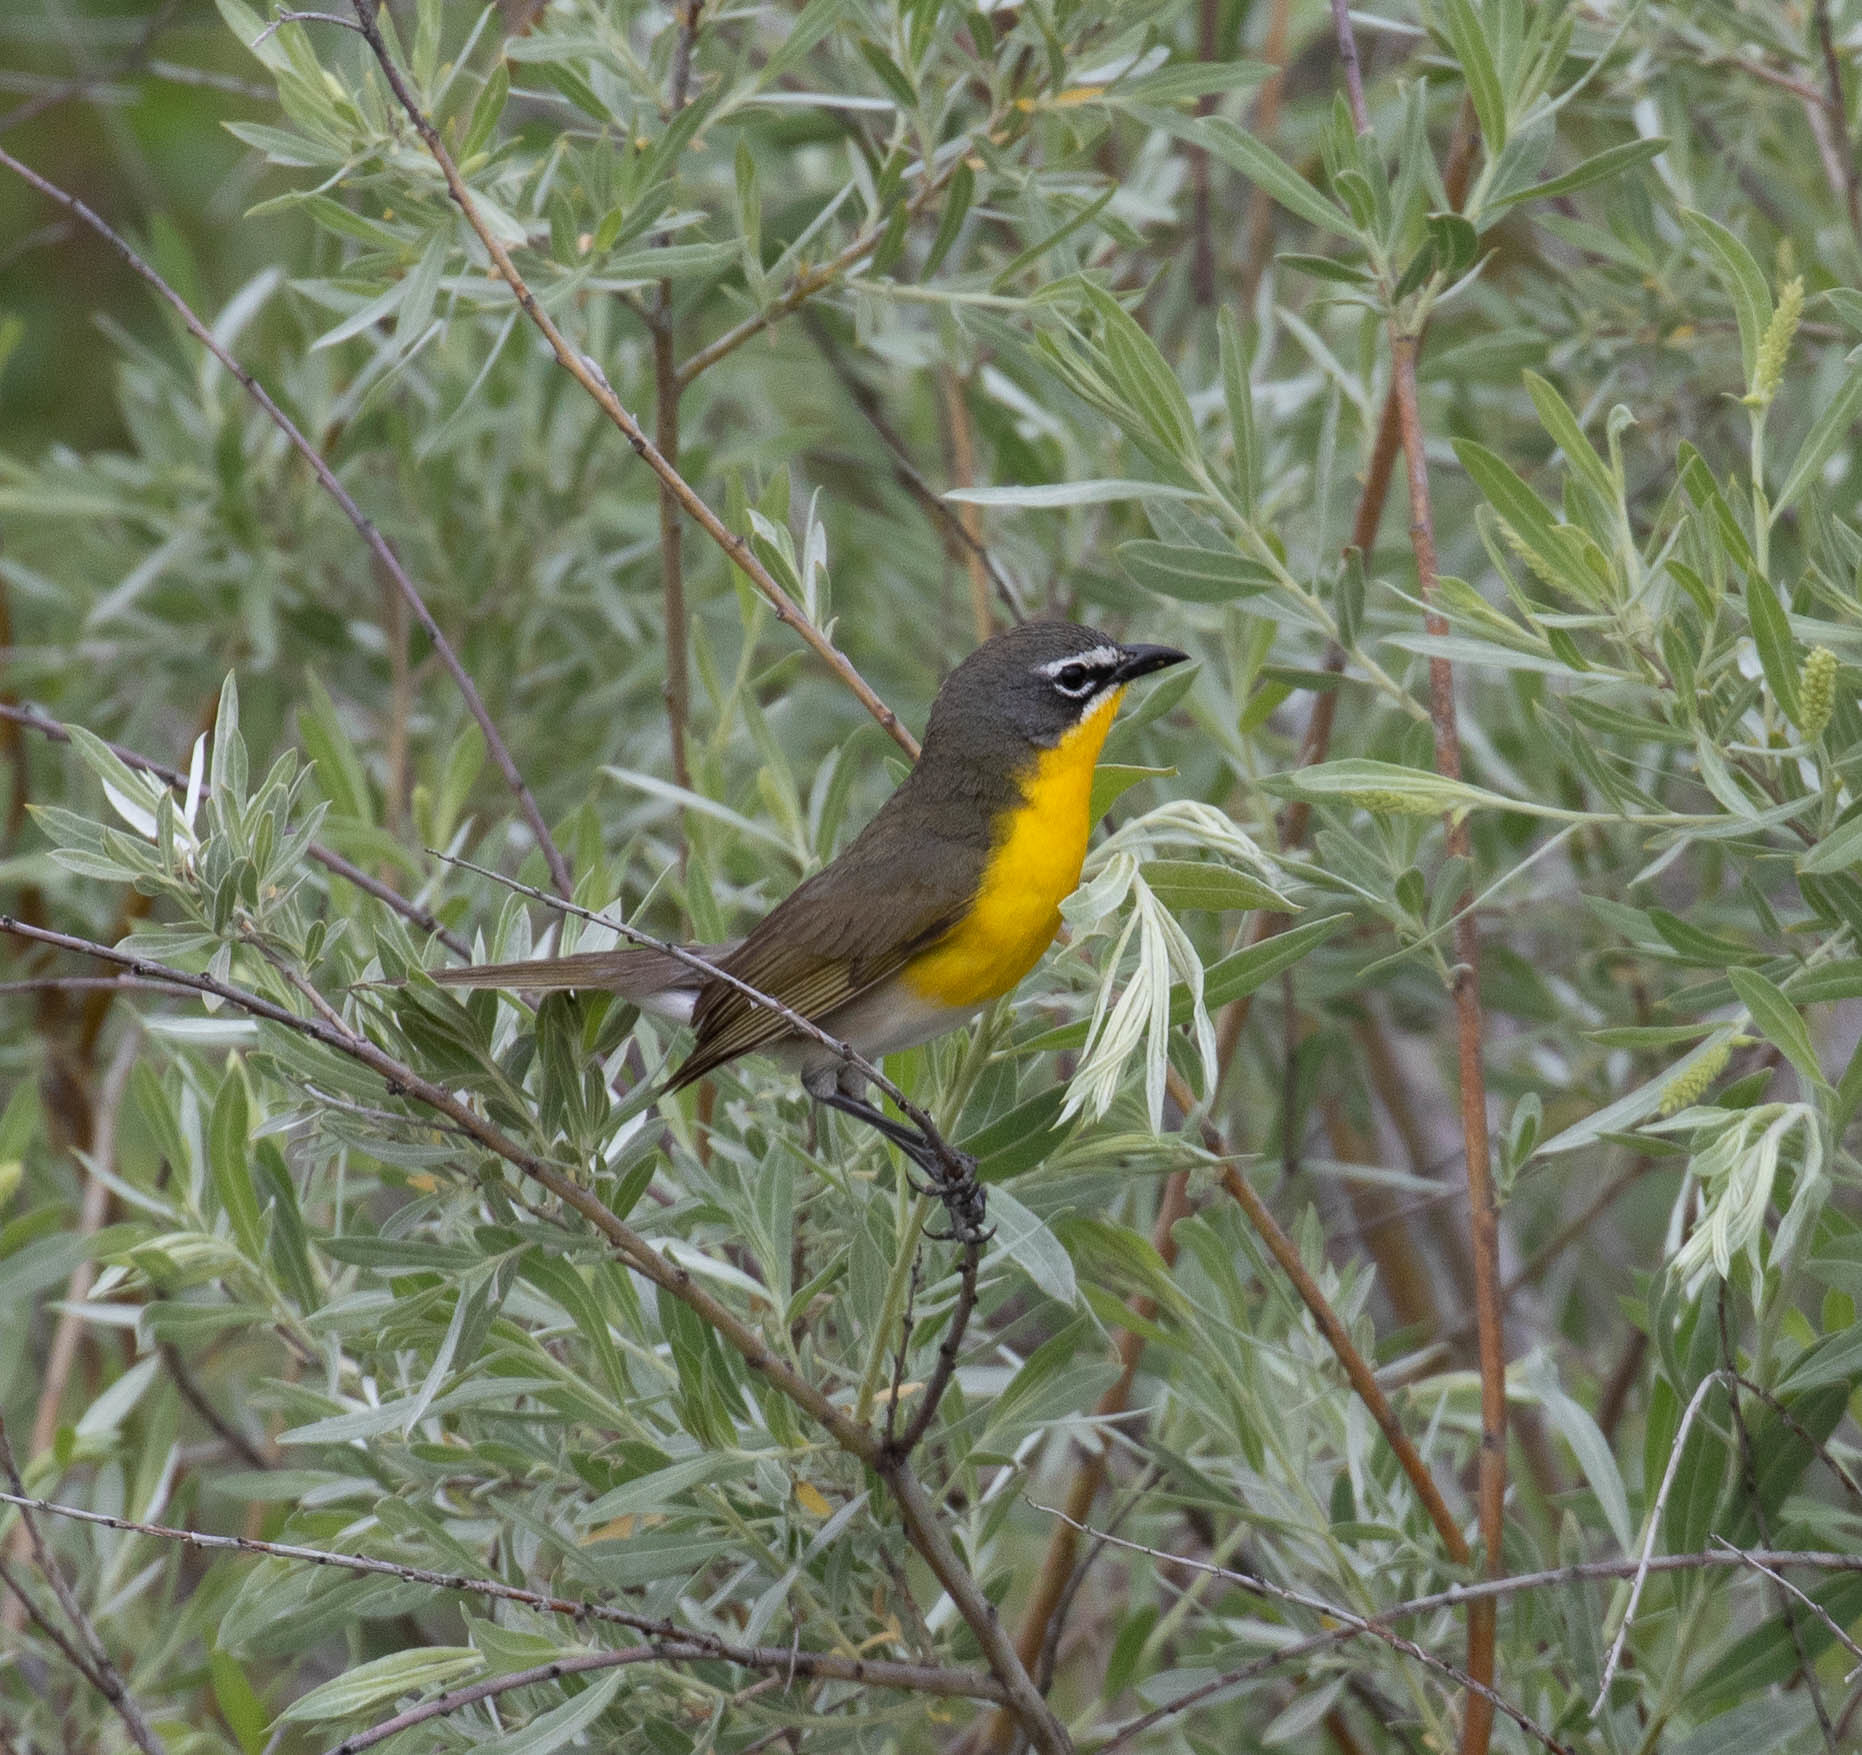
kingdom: Animalia
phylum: Chordata
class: Aves
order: Passeriformes
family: Parulidae
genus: Icteria
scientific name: Icteria virens
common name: Yellow-breasted chat
